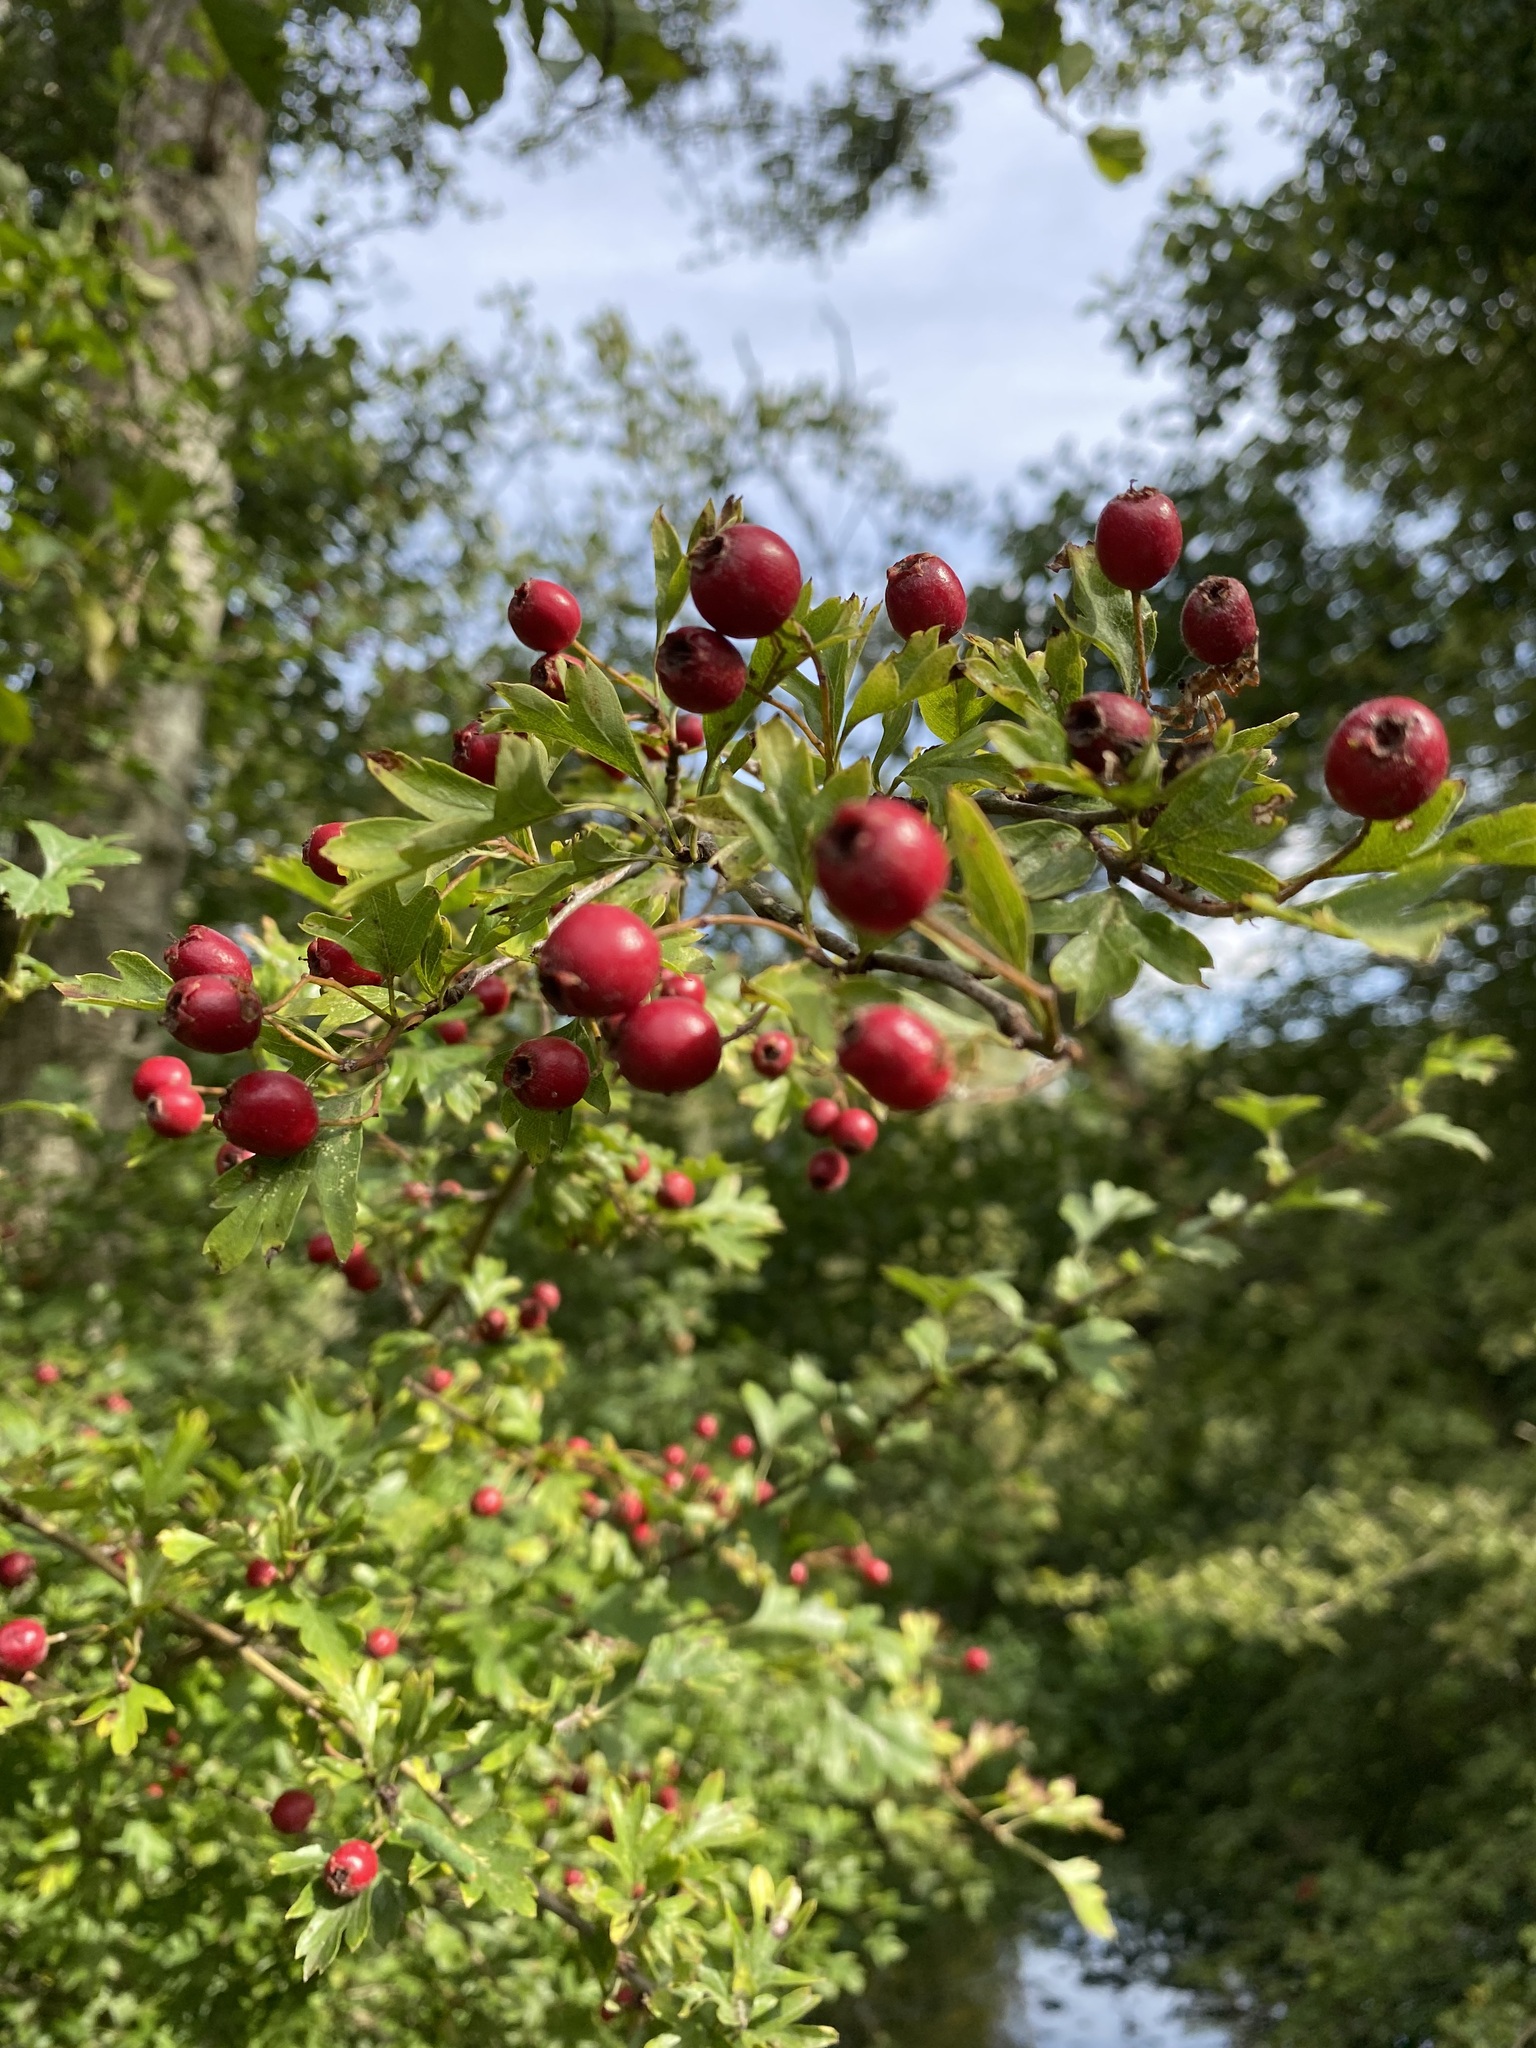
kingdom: Plantae
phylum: Tracheophyta
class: Magnoliopsida
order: Rosales
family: Rosaceae
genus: Crataegus
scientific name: Crataegus monogyna
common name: Hawthorn
